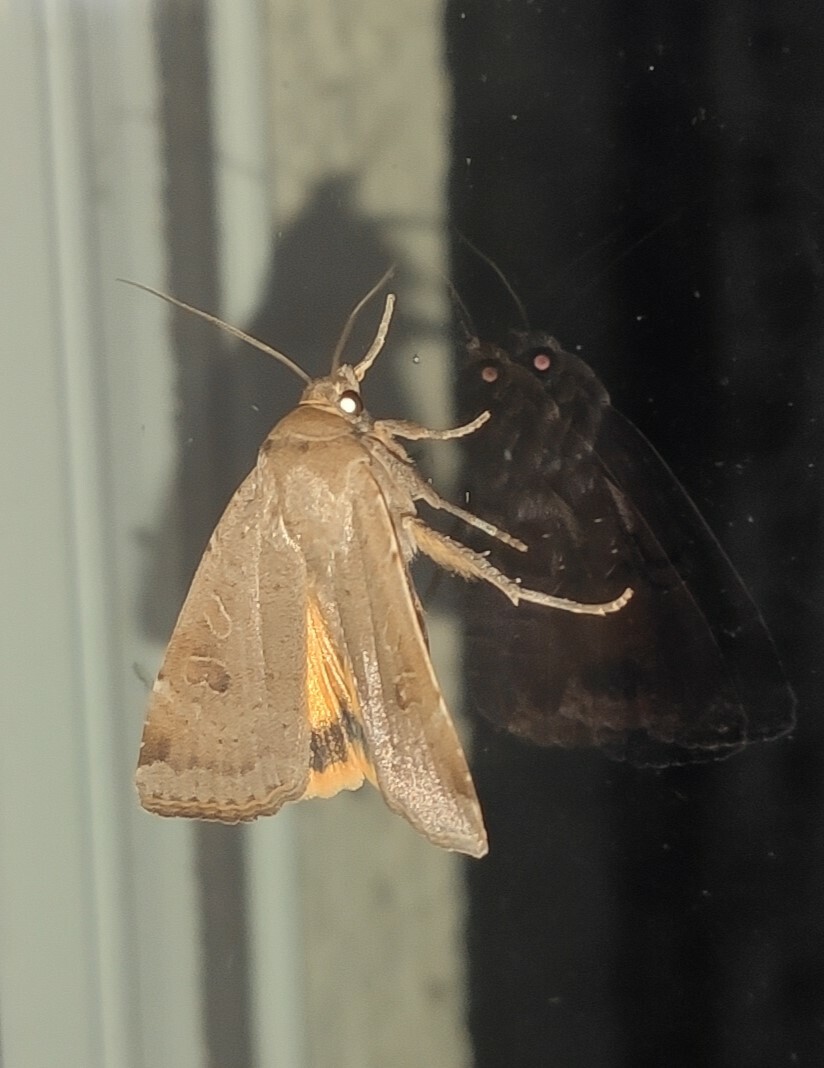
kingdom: Animalia
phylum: Arthropoda
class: Insecta
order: Lepidoptera
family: Noctuidae
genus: Noctua
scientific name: Noctua comes
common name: Lesser yellow underwing
